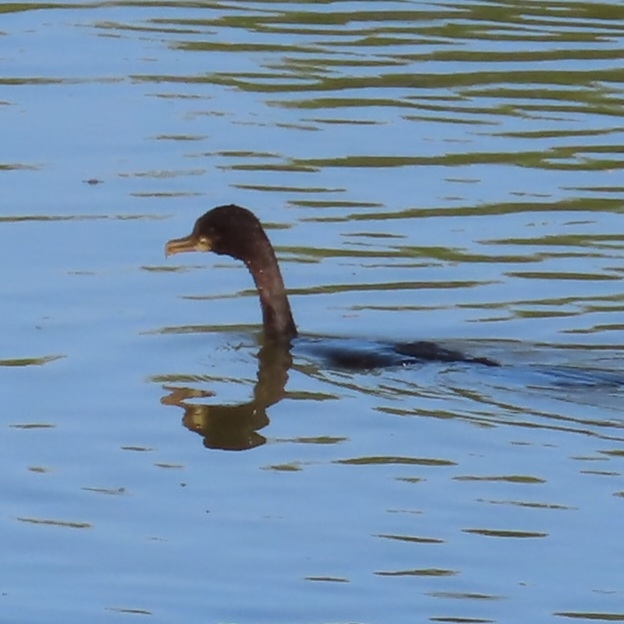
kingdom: Animalia
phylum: Chordata
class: Aves
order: Suliformes
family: Phalacrocoracidae
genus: Phalacrocorax
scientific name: Phalacrocorax brasilianus
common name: Neotropic cormorant
